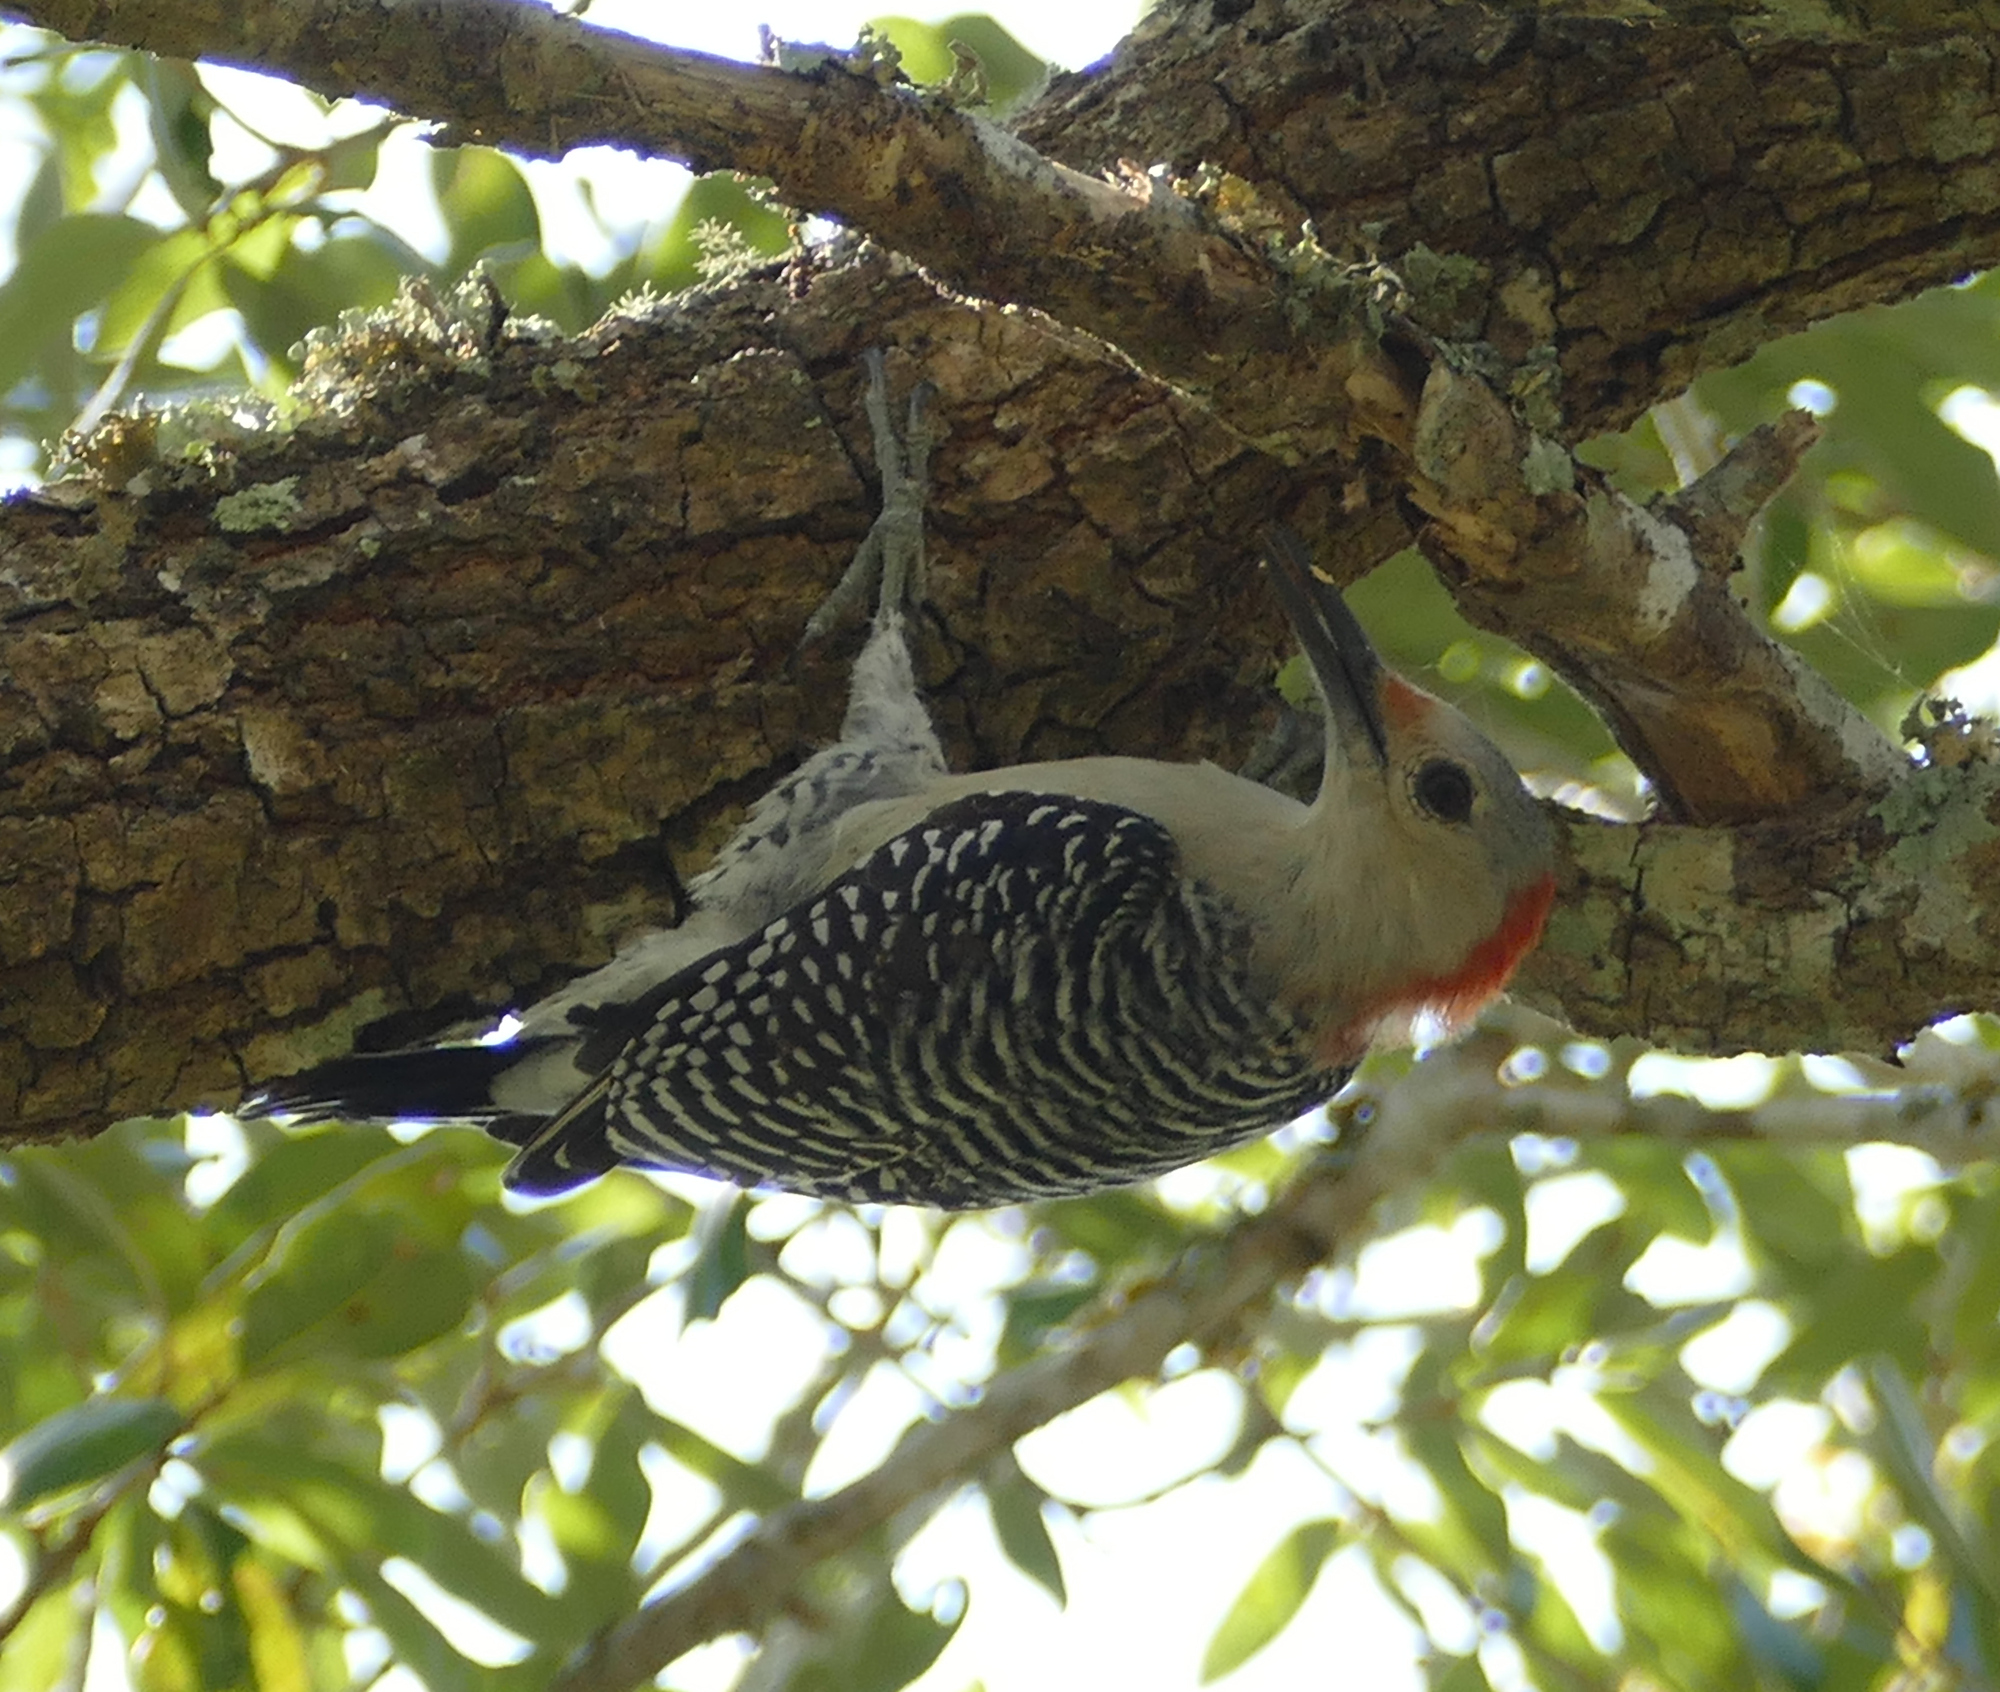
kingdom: Animalia
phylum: Chordata
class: Aves
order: Piciformes
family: Picidae
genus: Melanerpes
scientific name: Melanerpes carolinus
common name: Red-bellied woodpecker
